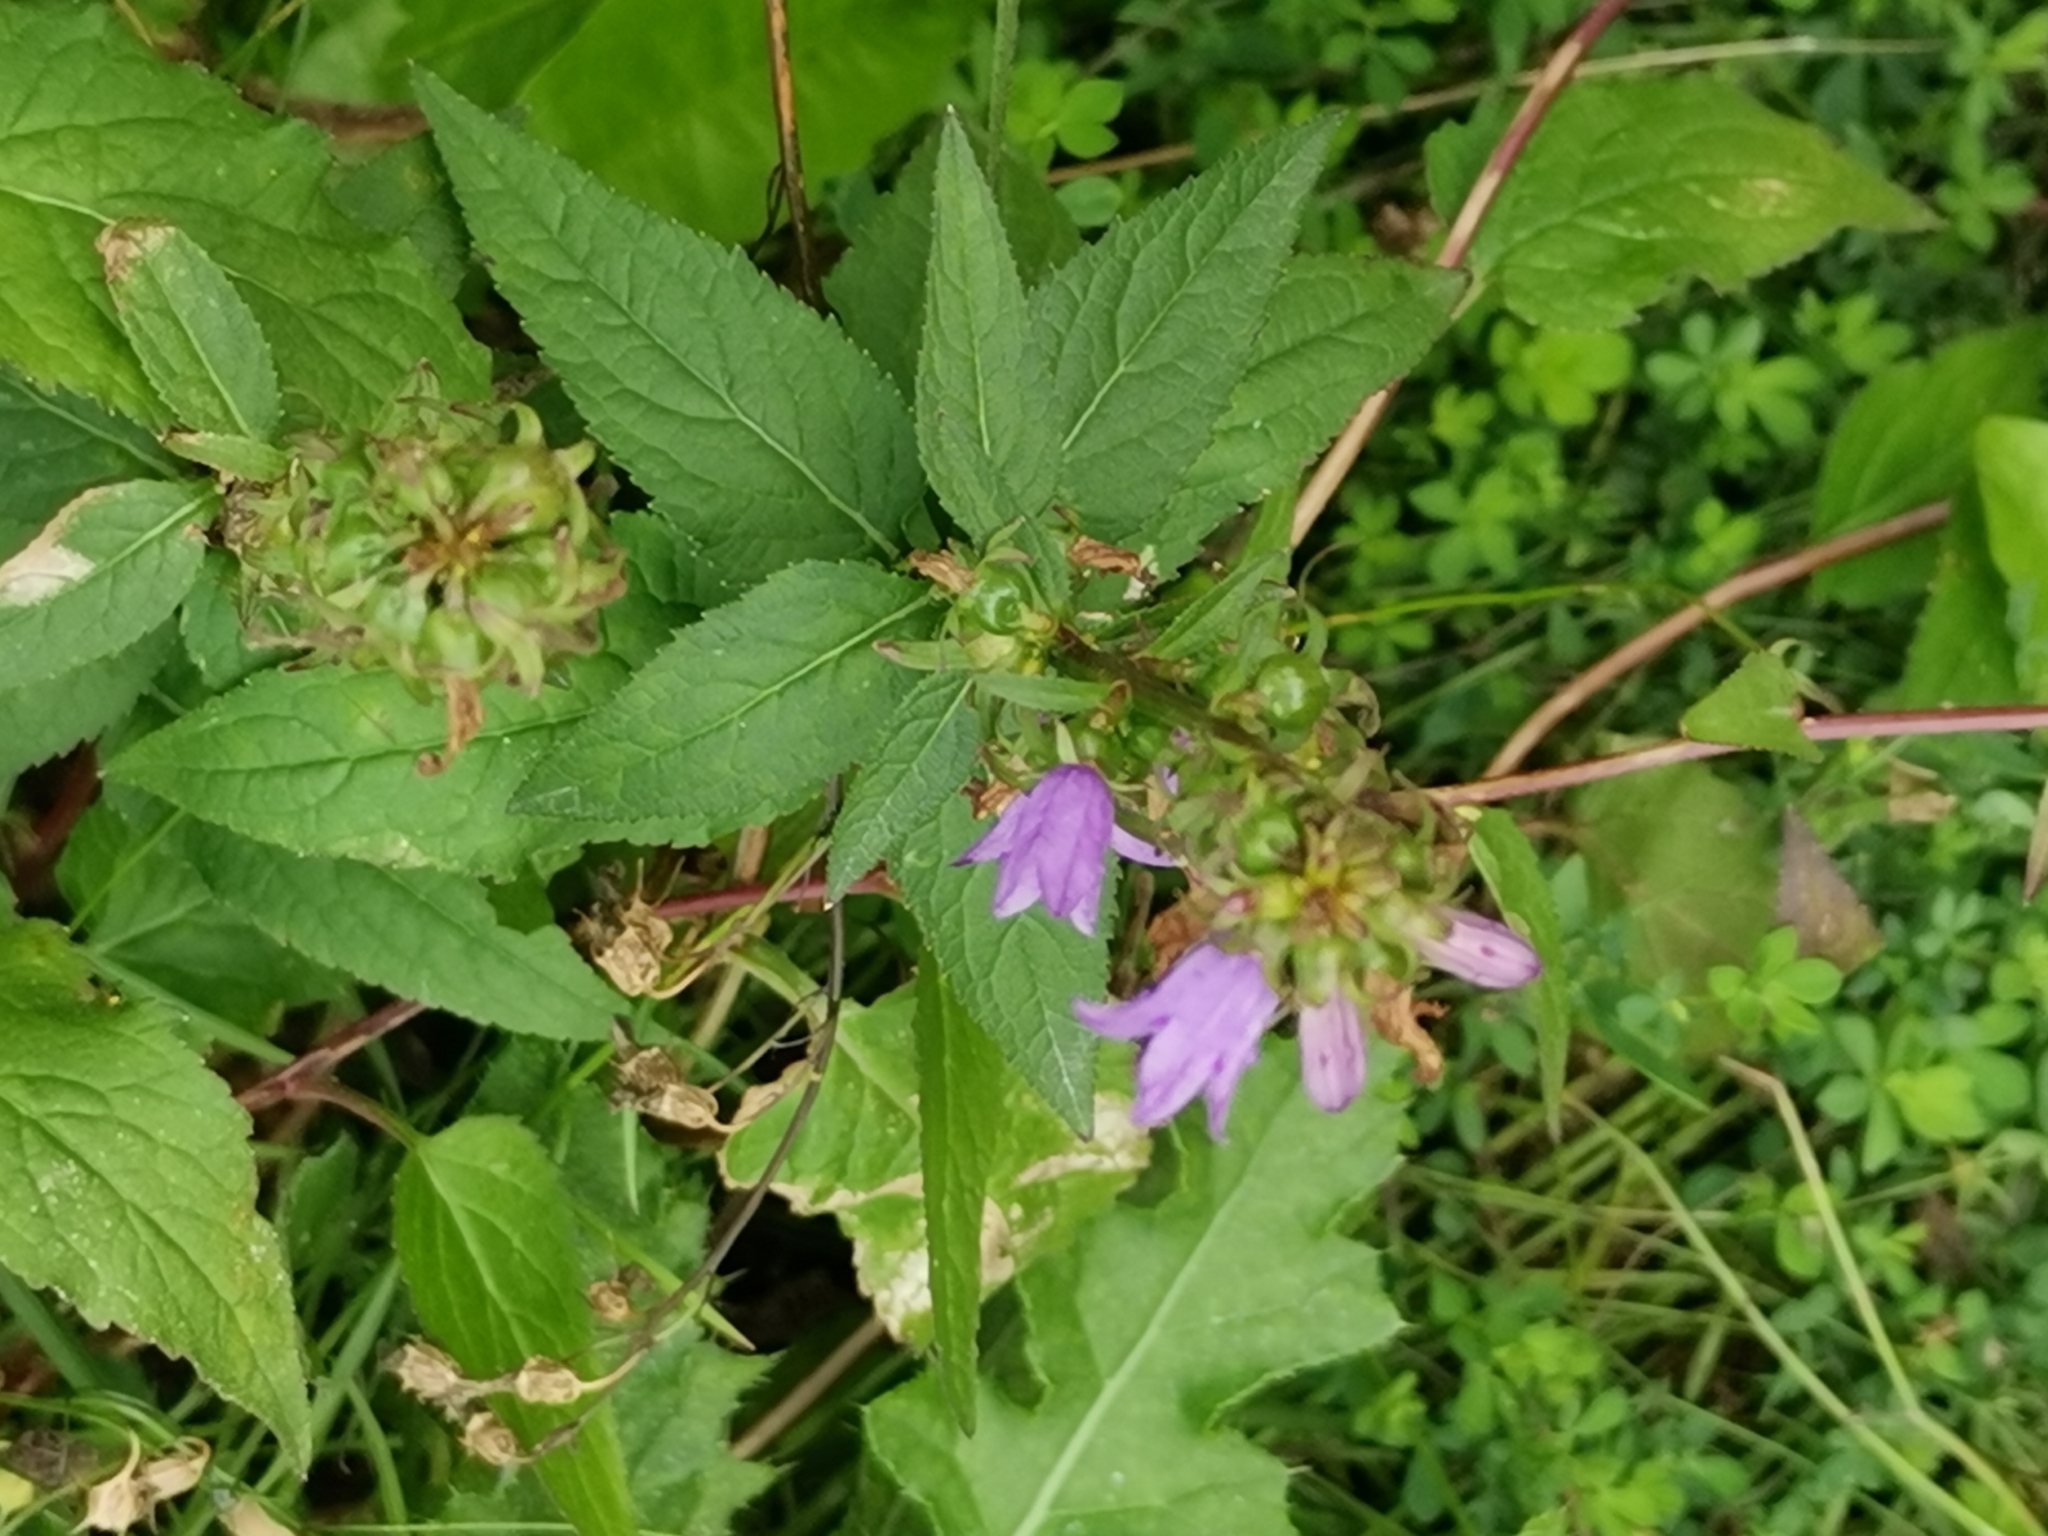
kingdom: Plantae
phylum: Tracheophyta
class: Magnoliopsida
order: Asterales
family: Campanulaceae
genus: Campanula
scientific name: Campanula trachelium
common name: Nettle-leaved bellflower
